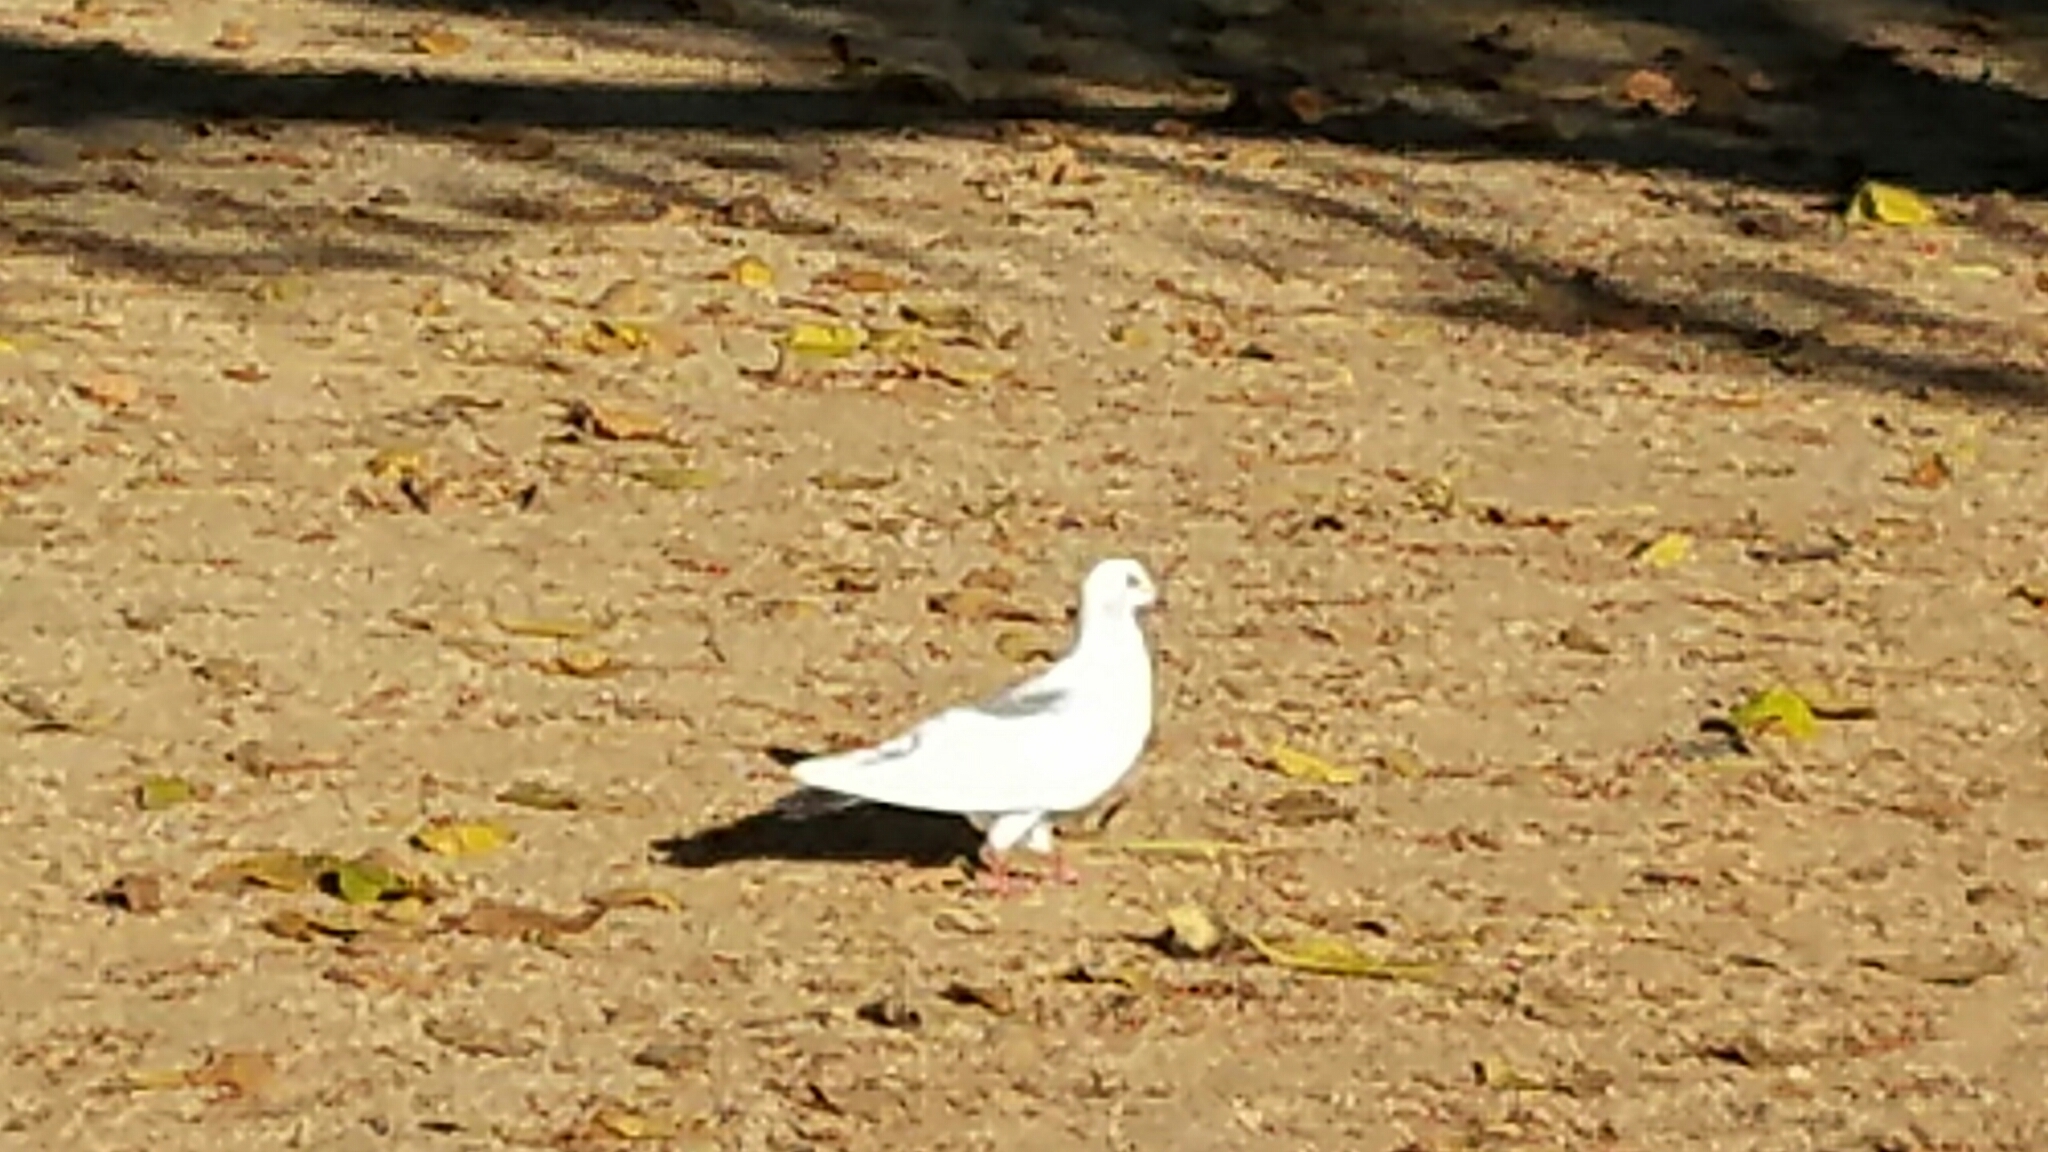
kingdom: Animalia
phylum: Chordata
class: Aves
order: Columbiformes
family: Columbidae
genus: Columba
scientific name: Columba livia
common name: Rock pigeon
